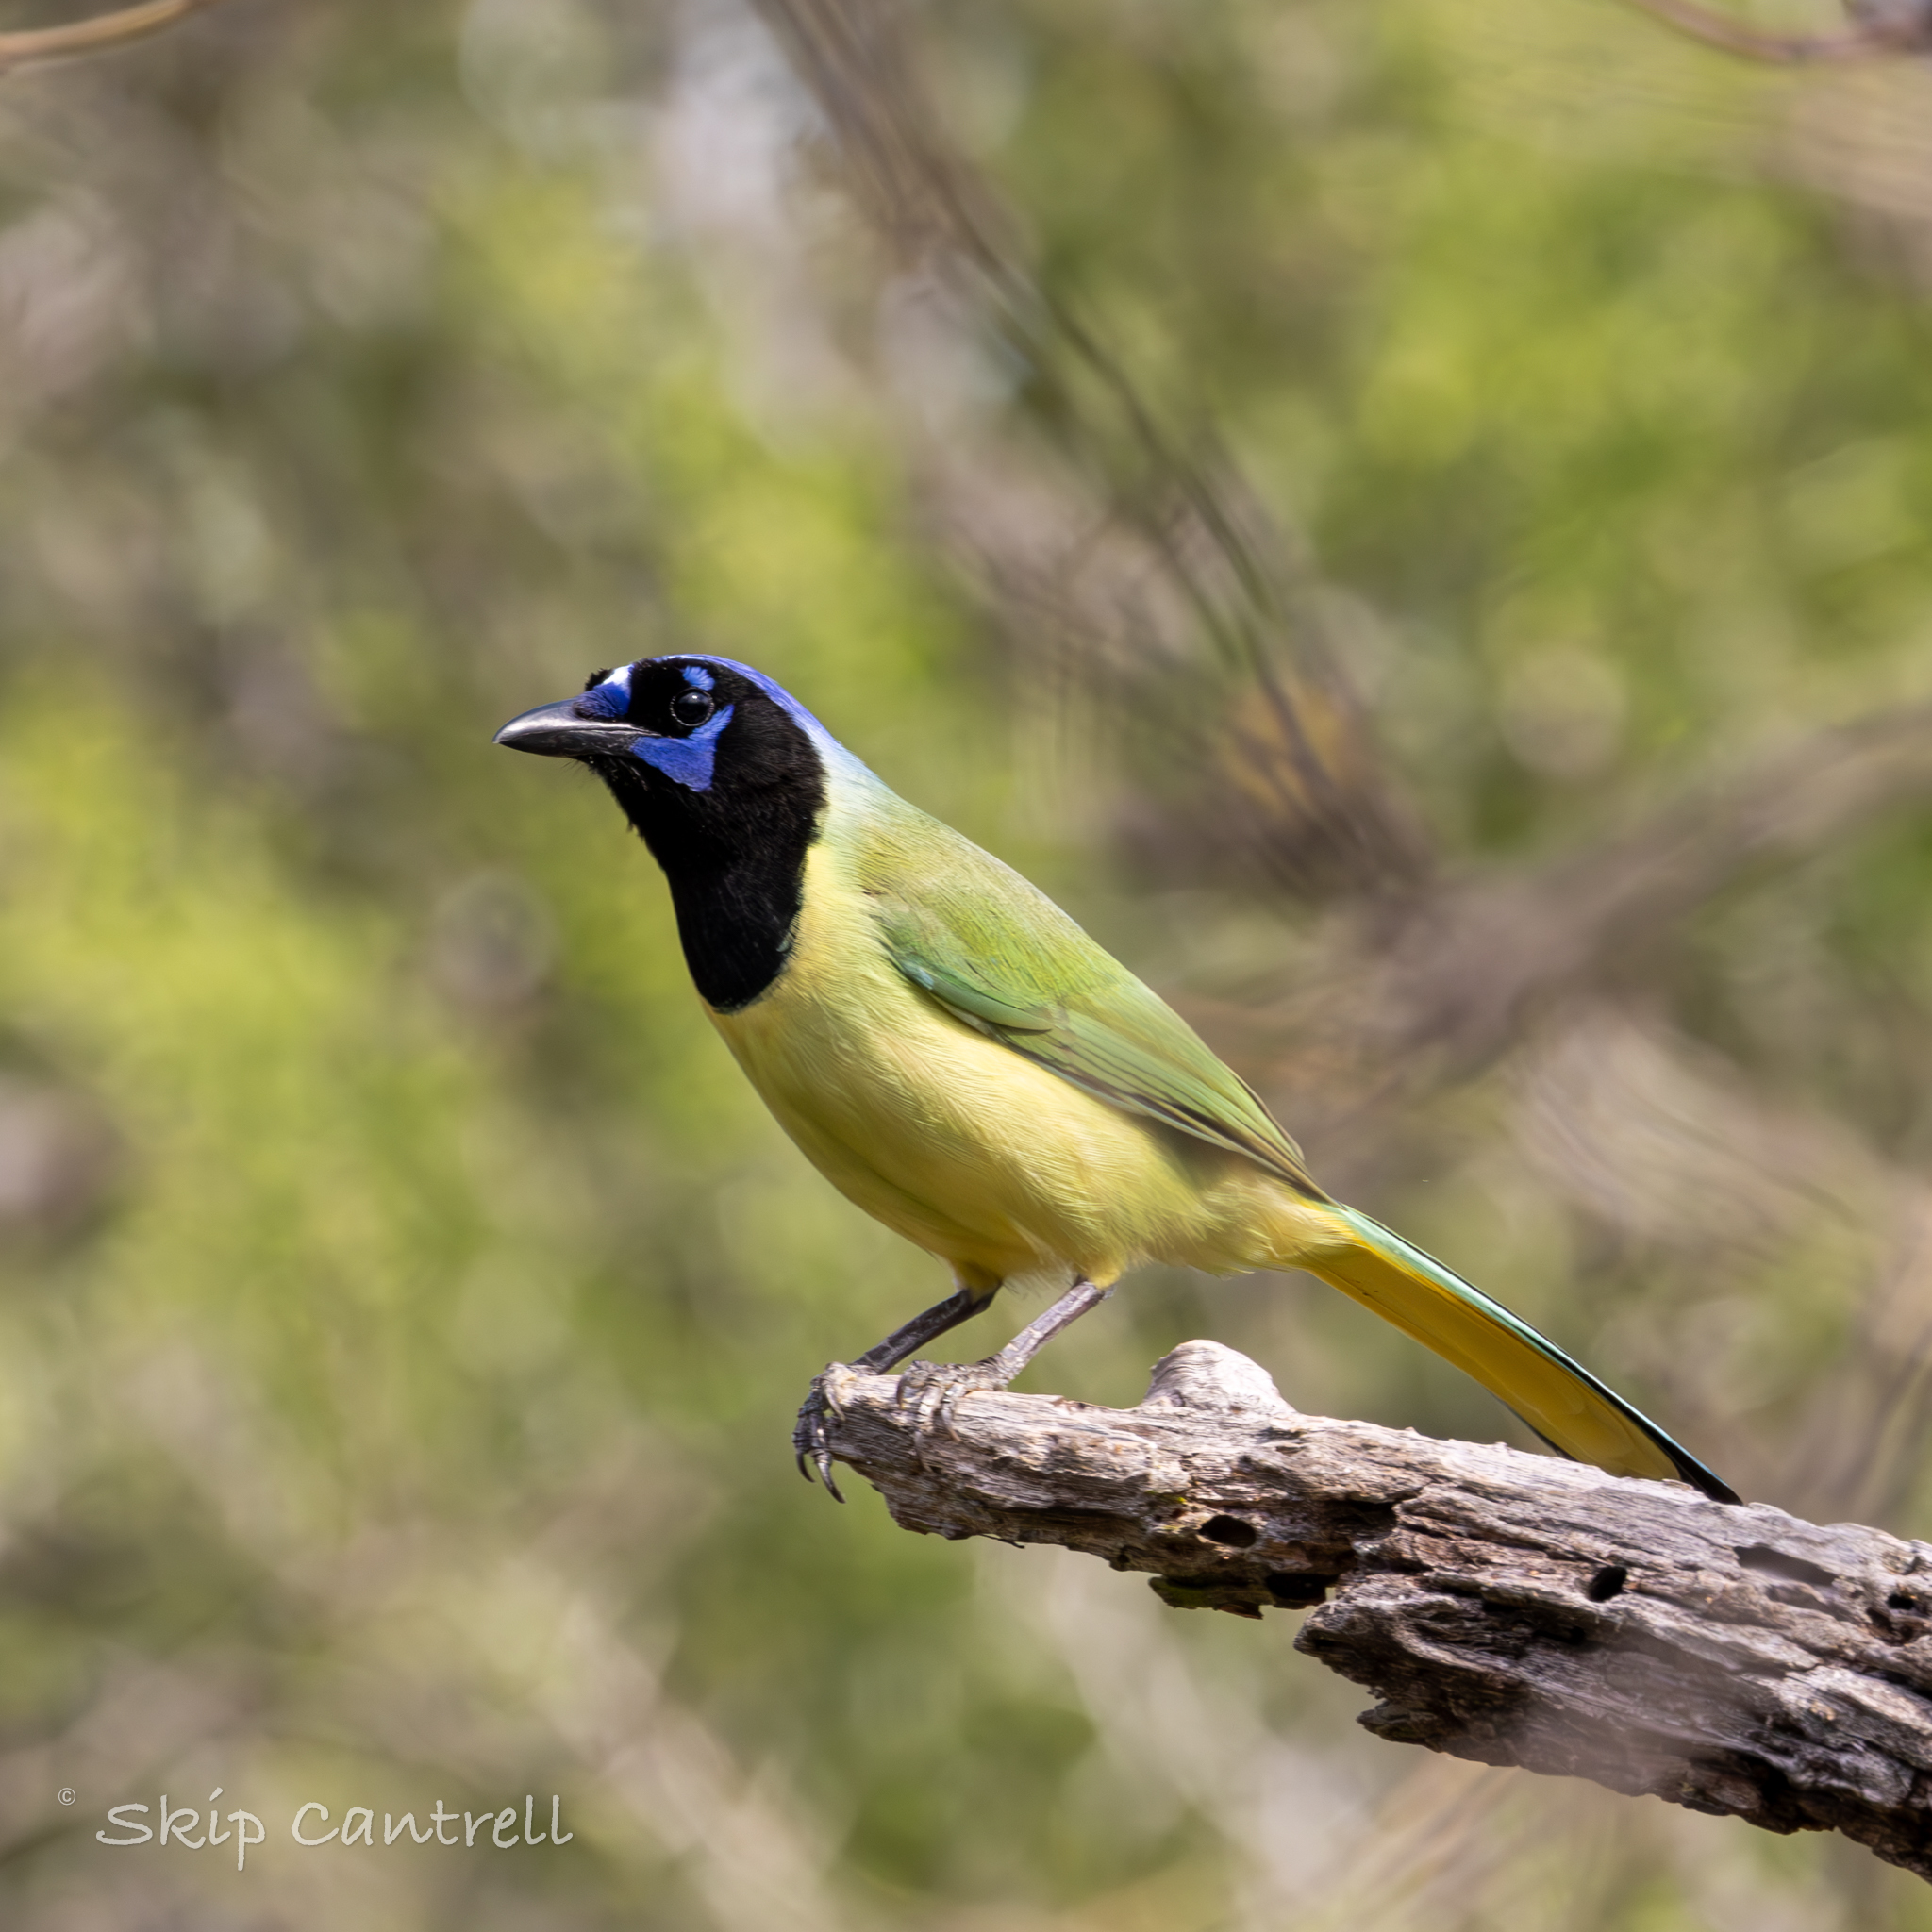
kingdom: Animalia
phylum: Chordata
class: Aves
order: Passeriformes
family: Corvidae
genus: Cyanocorax
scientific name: Cyanocorax yncas
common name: Green jay
